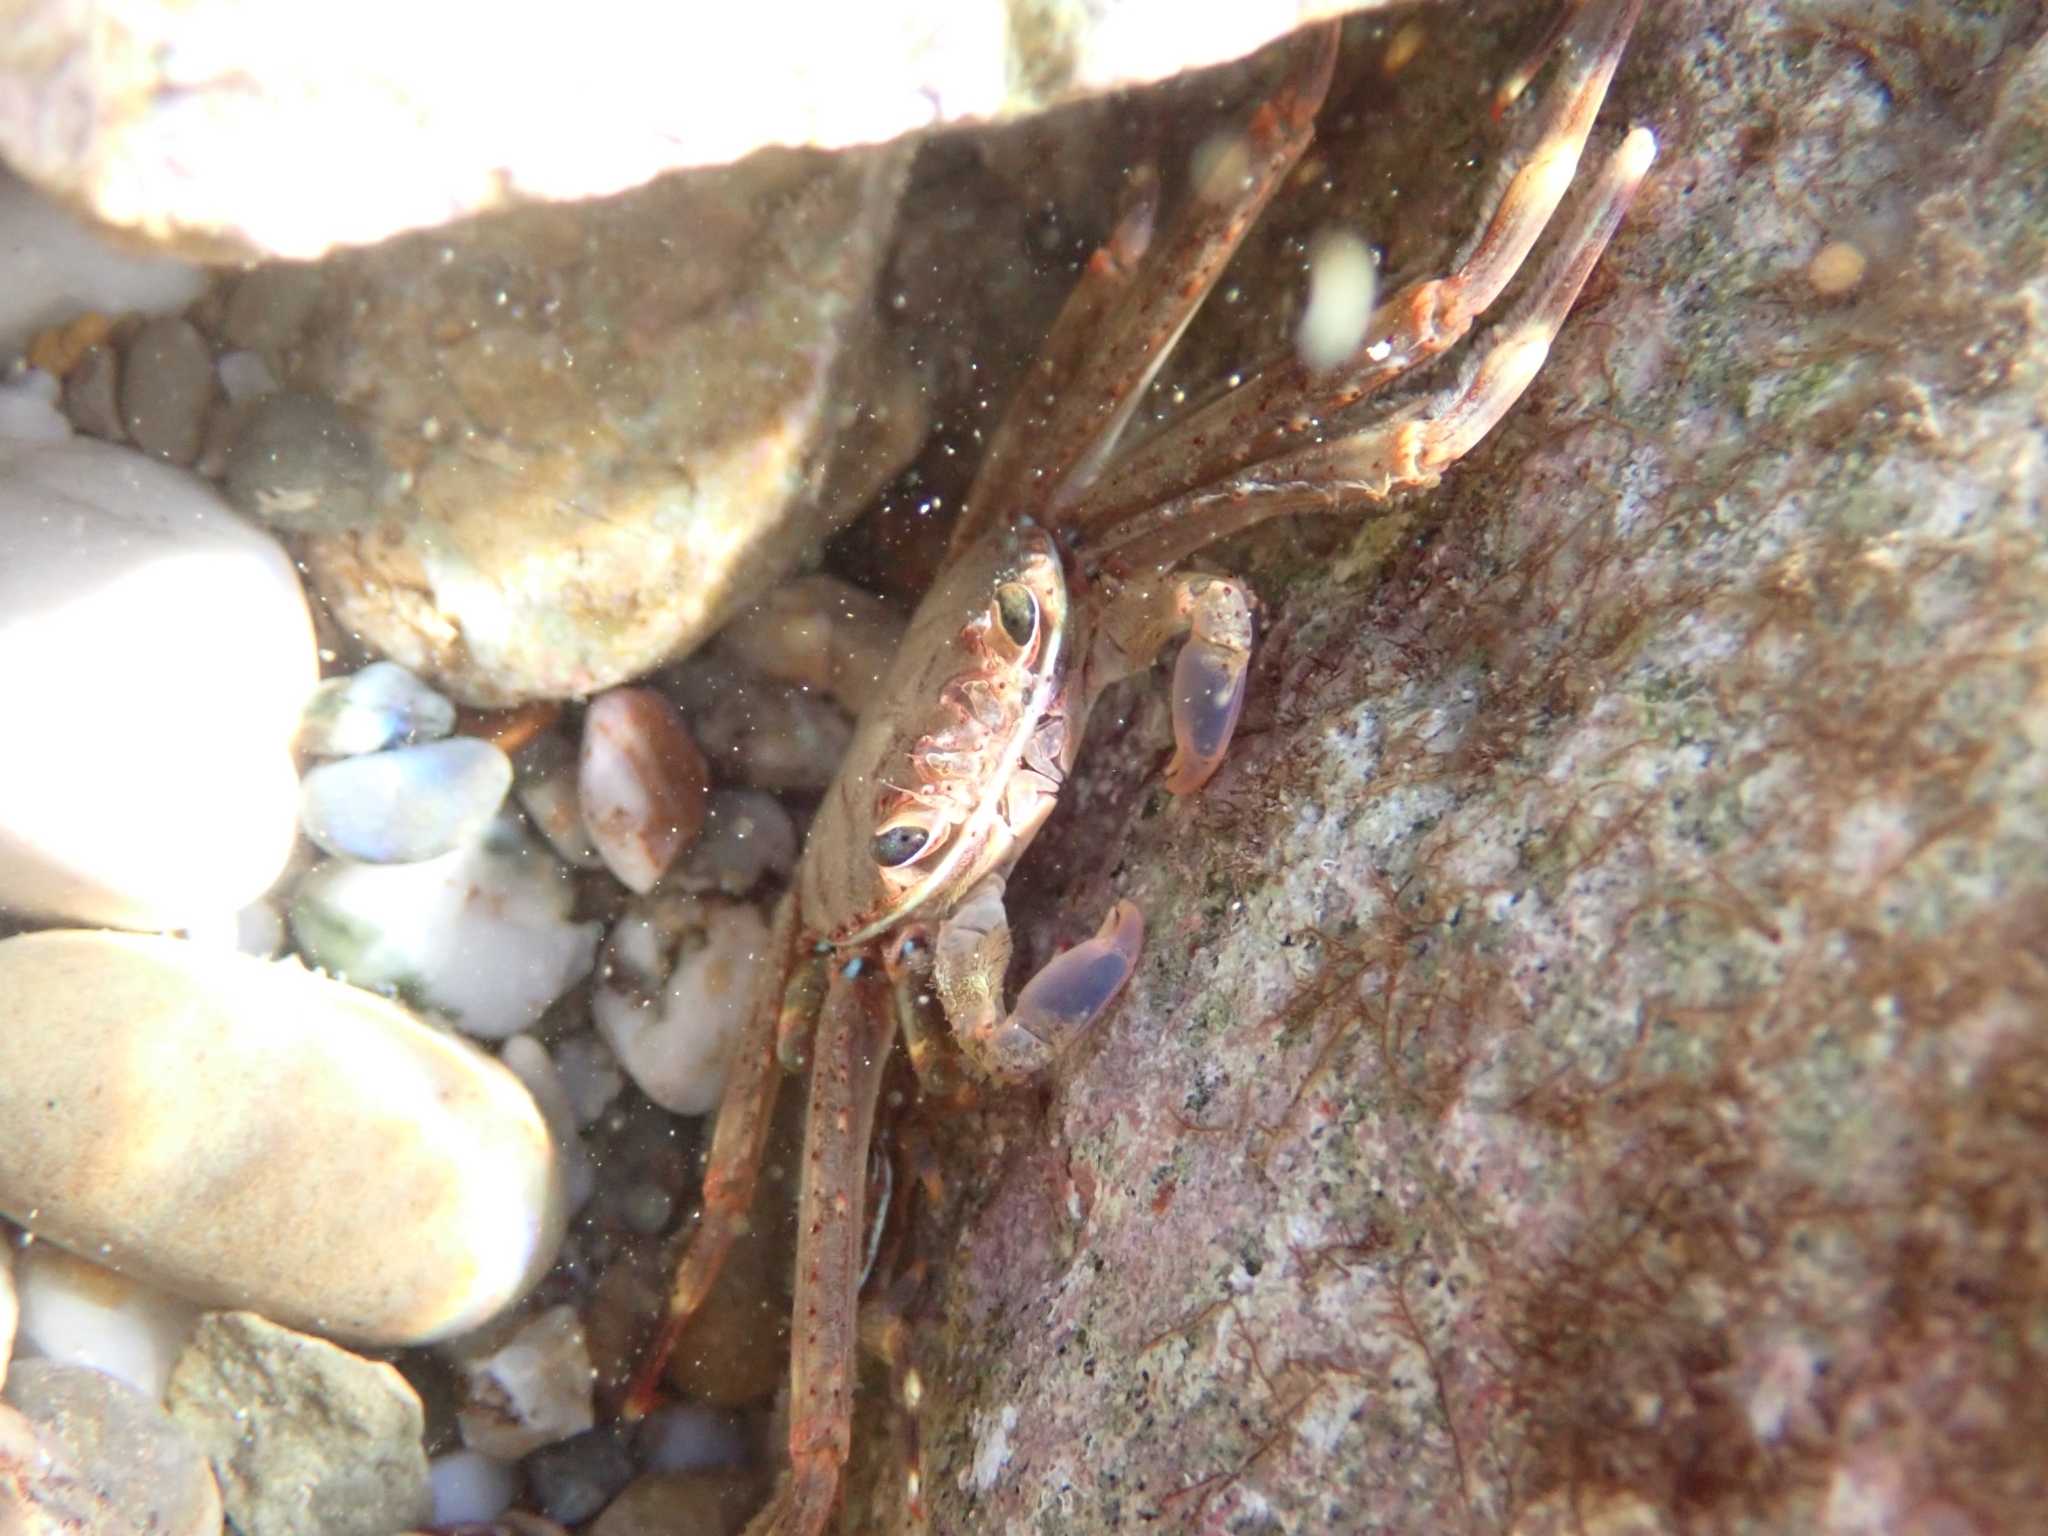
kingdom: Animalia
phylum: Arthropoda
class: Malacostraca
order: Decapoda
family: Percnidae
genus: Percnon
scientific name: Percnon gibbesi
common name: Nimble spray crab
